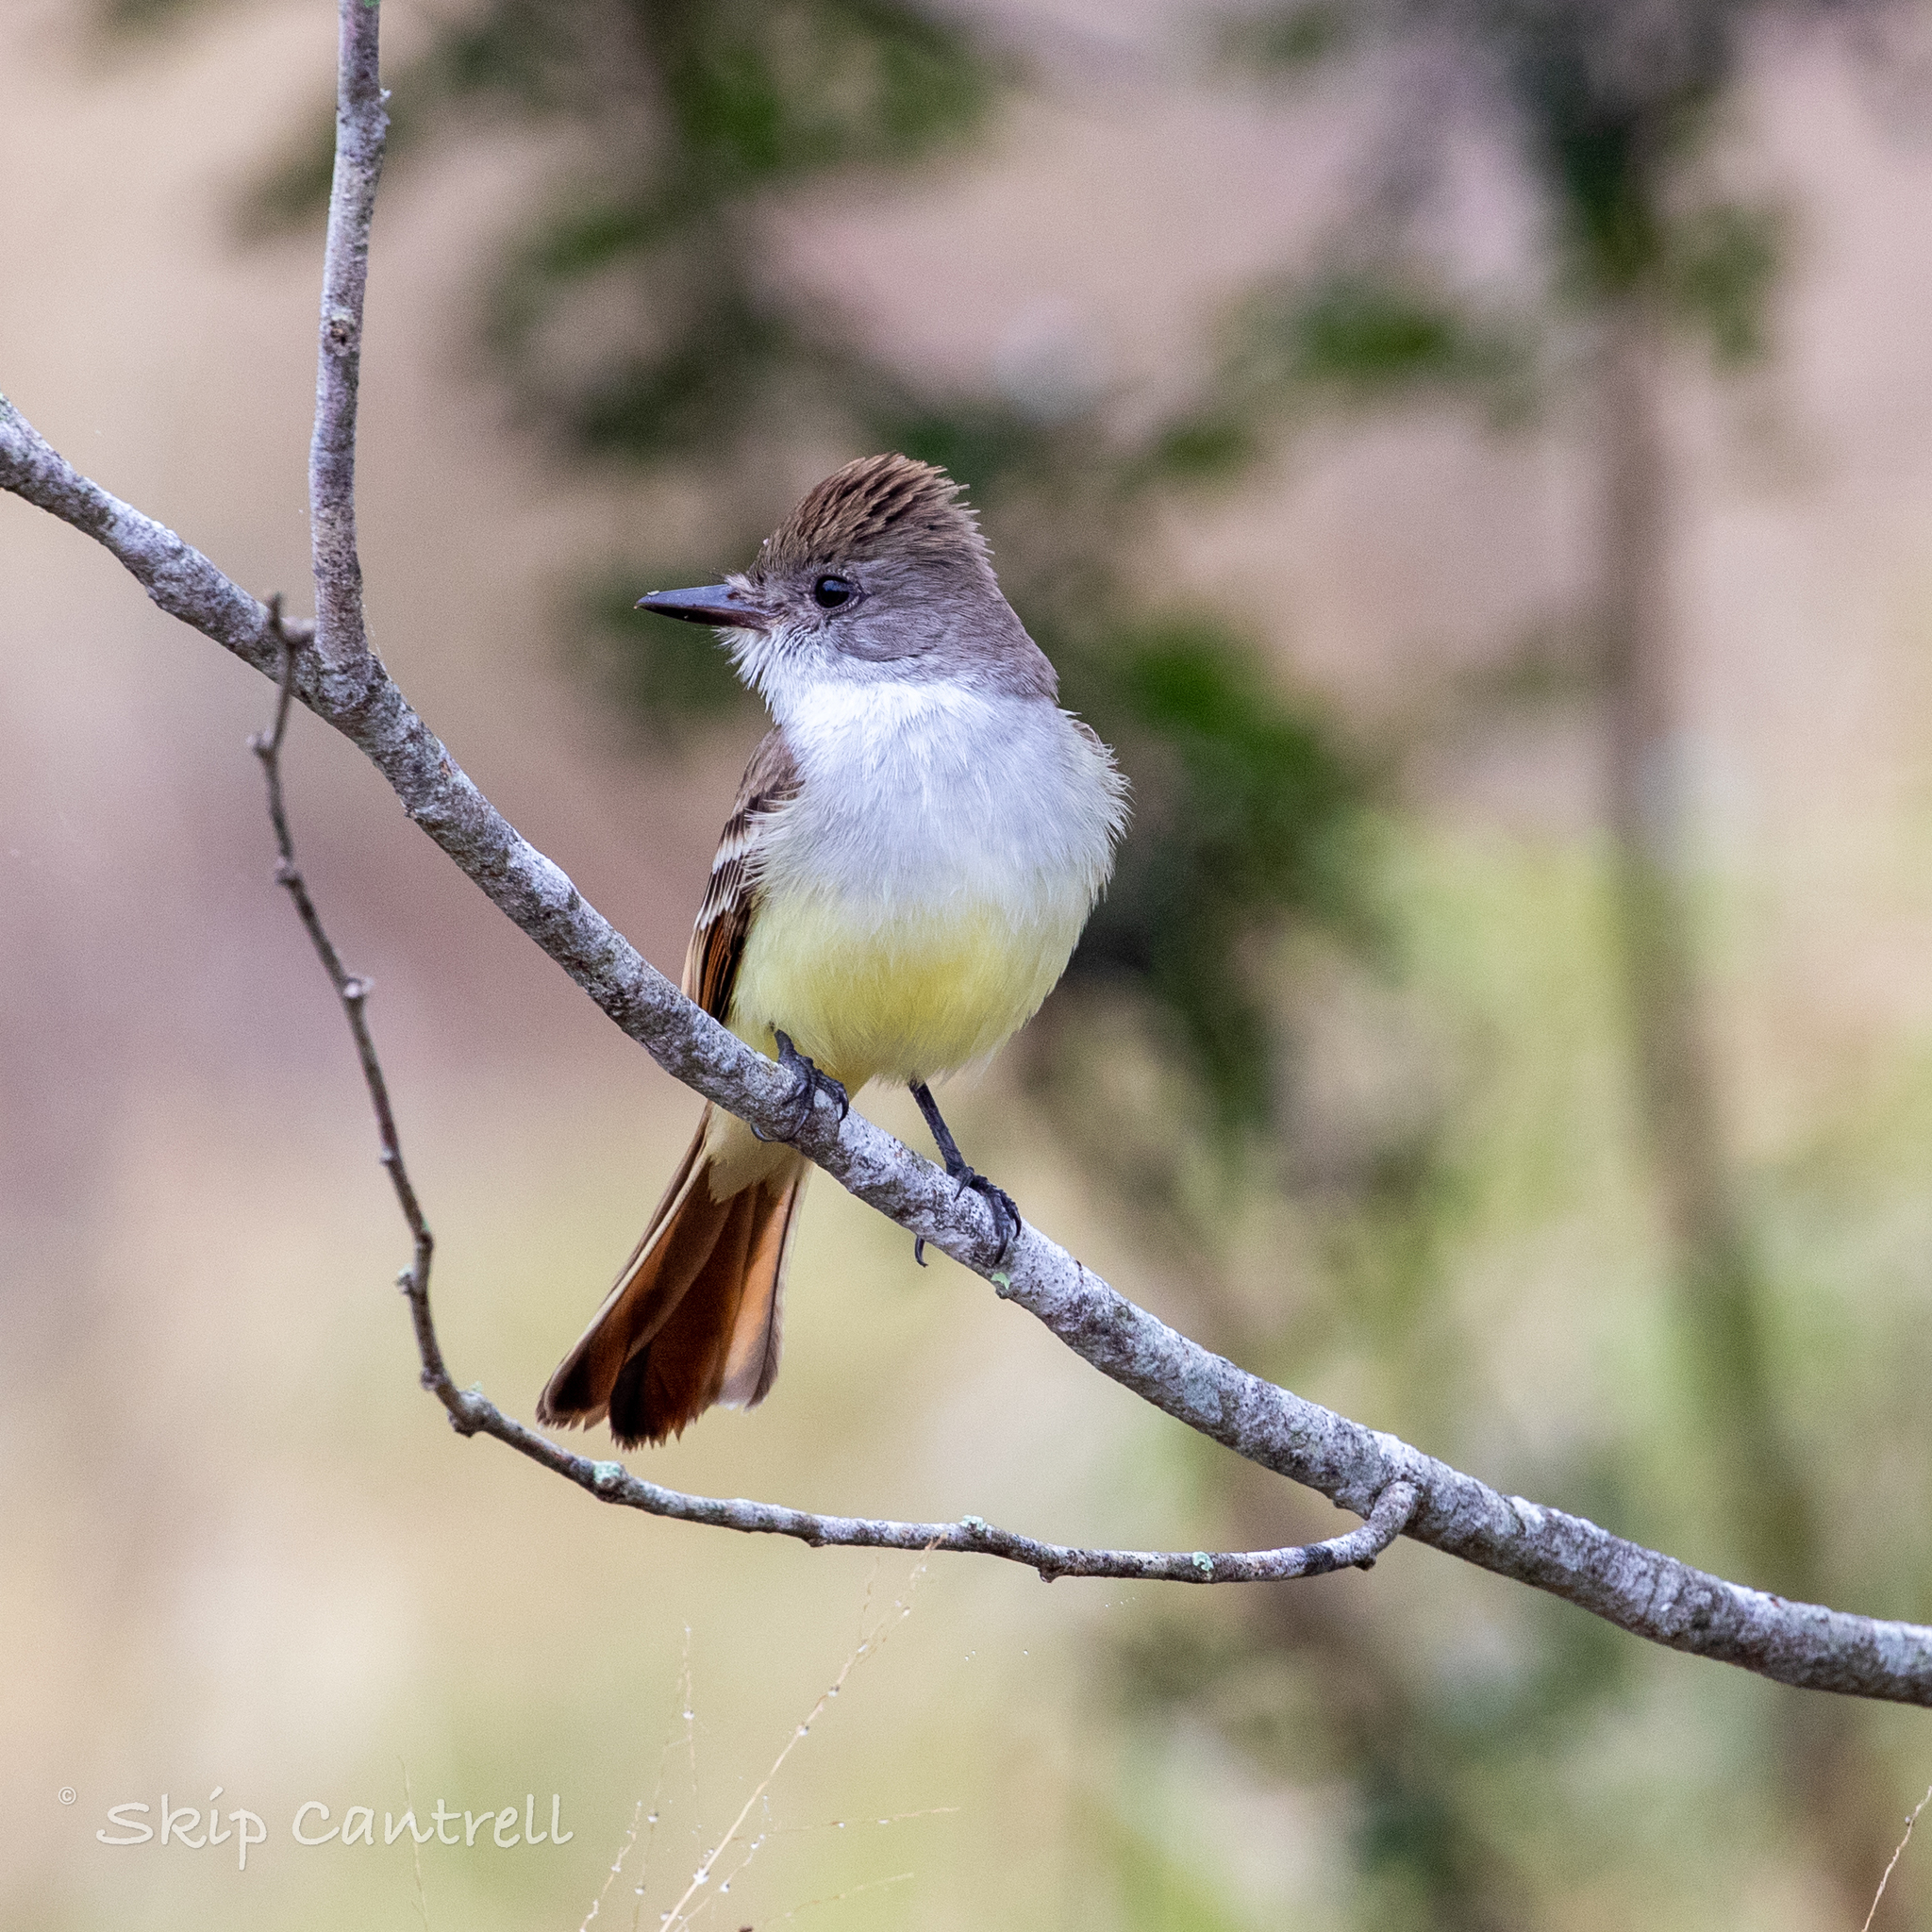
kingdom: Animalia
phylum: Chordata
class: Aves
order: Passeriformes
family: Tyrannidae
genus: Myiarchus
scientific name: Myiarchus cinerascens
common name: Ash-throated flycatcher
